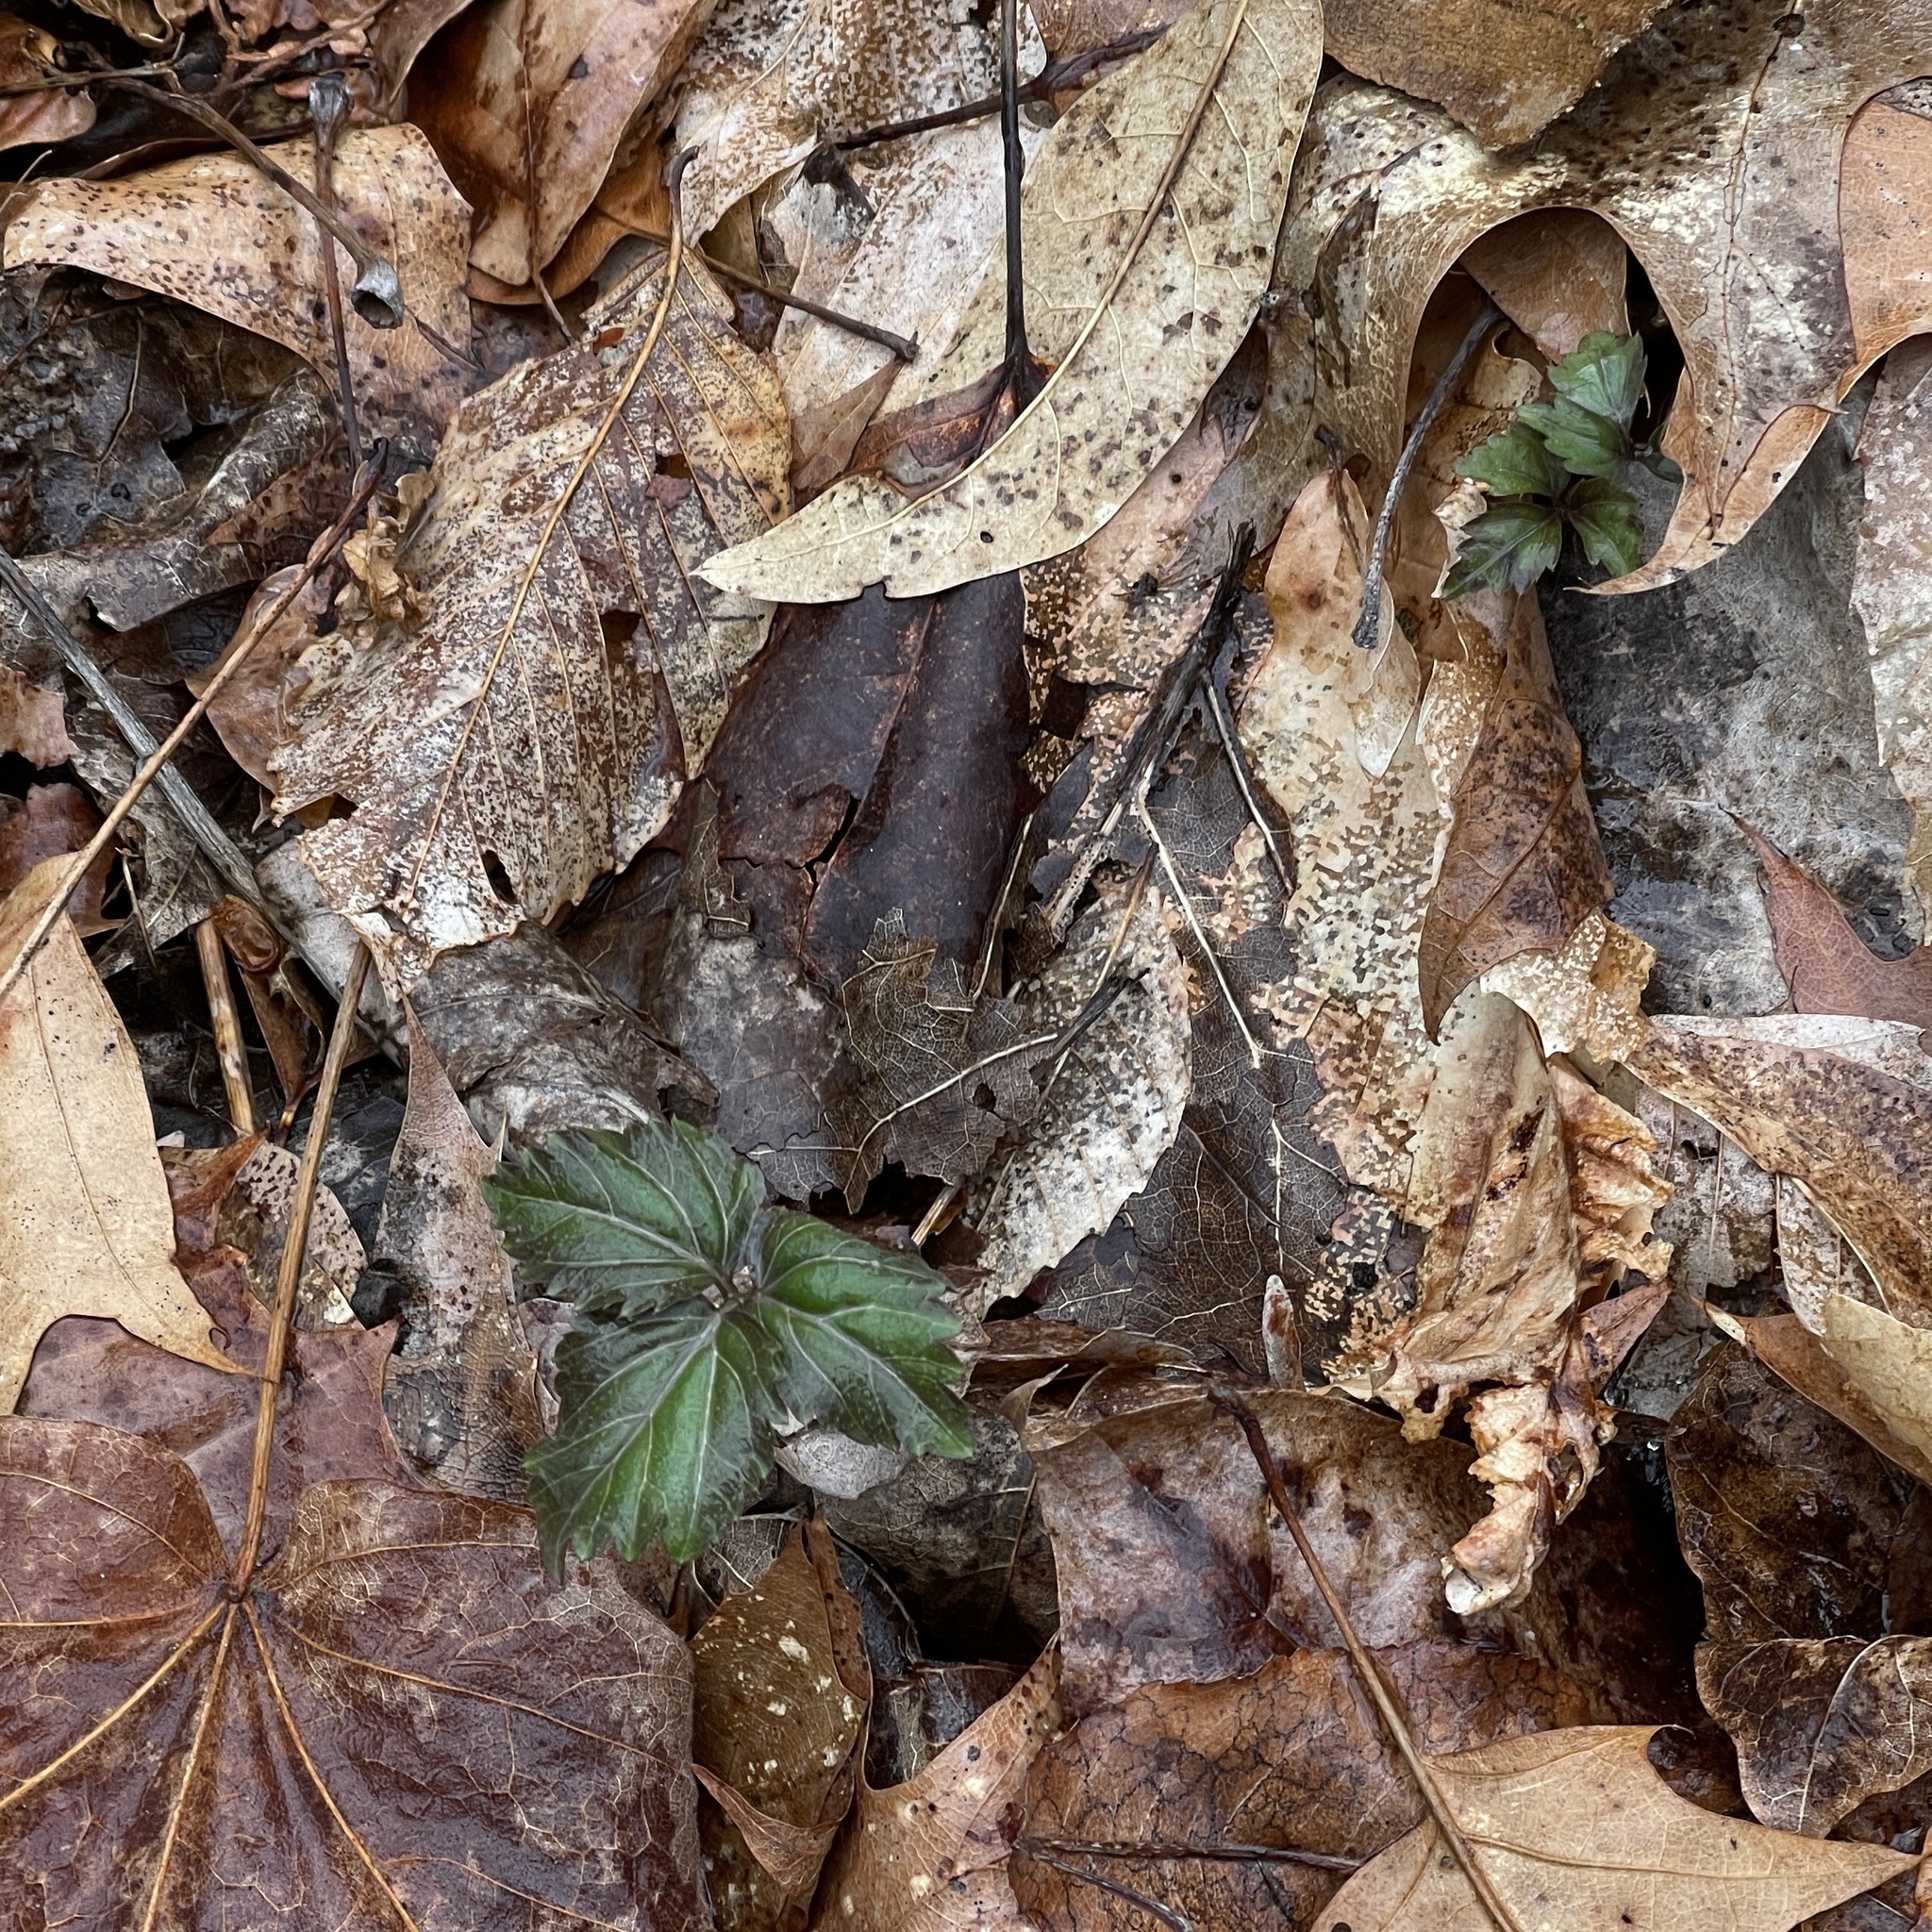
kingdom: Plantae
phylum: Tracheophyta
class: Magnoliopsida
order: Brassicales
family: Brassicaceae
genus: Cardamine
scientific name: Cardamine diphylla
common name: Broad-leaved toothwort
